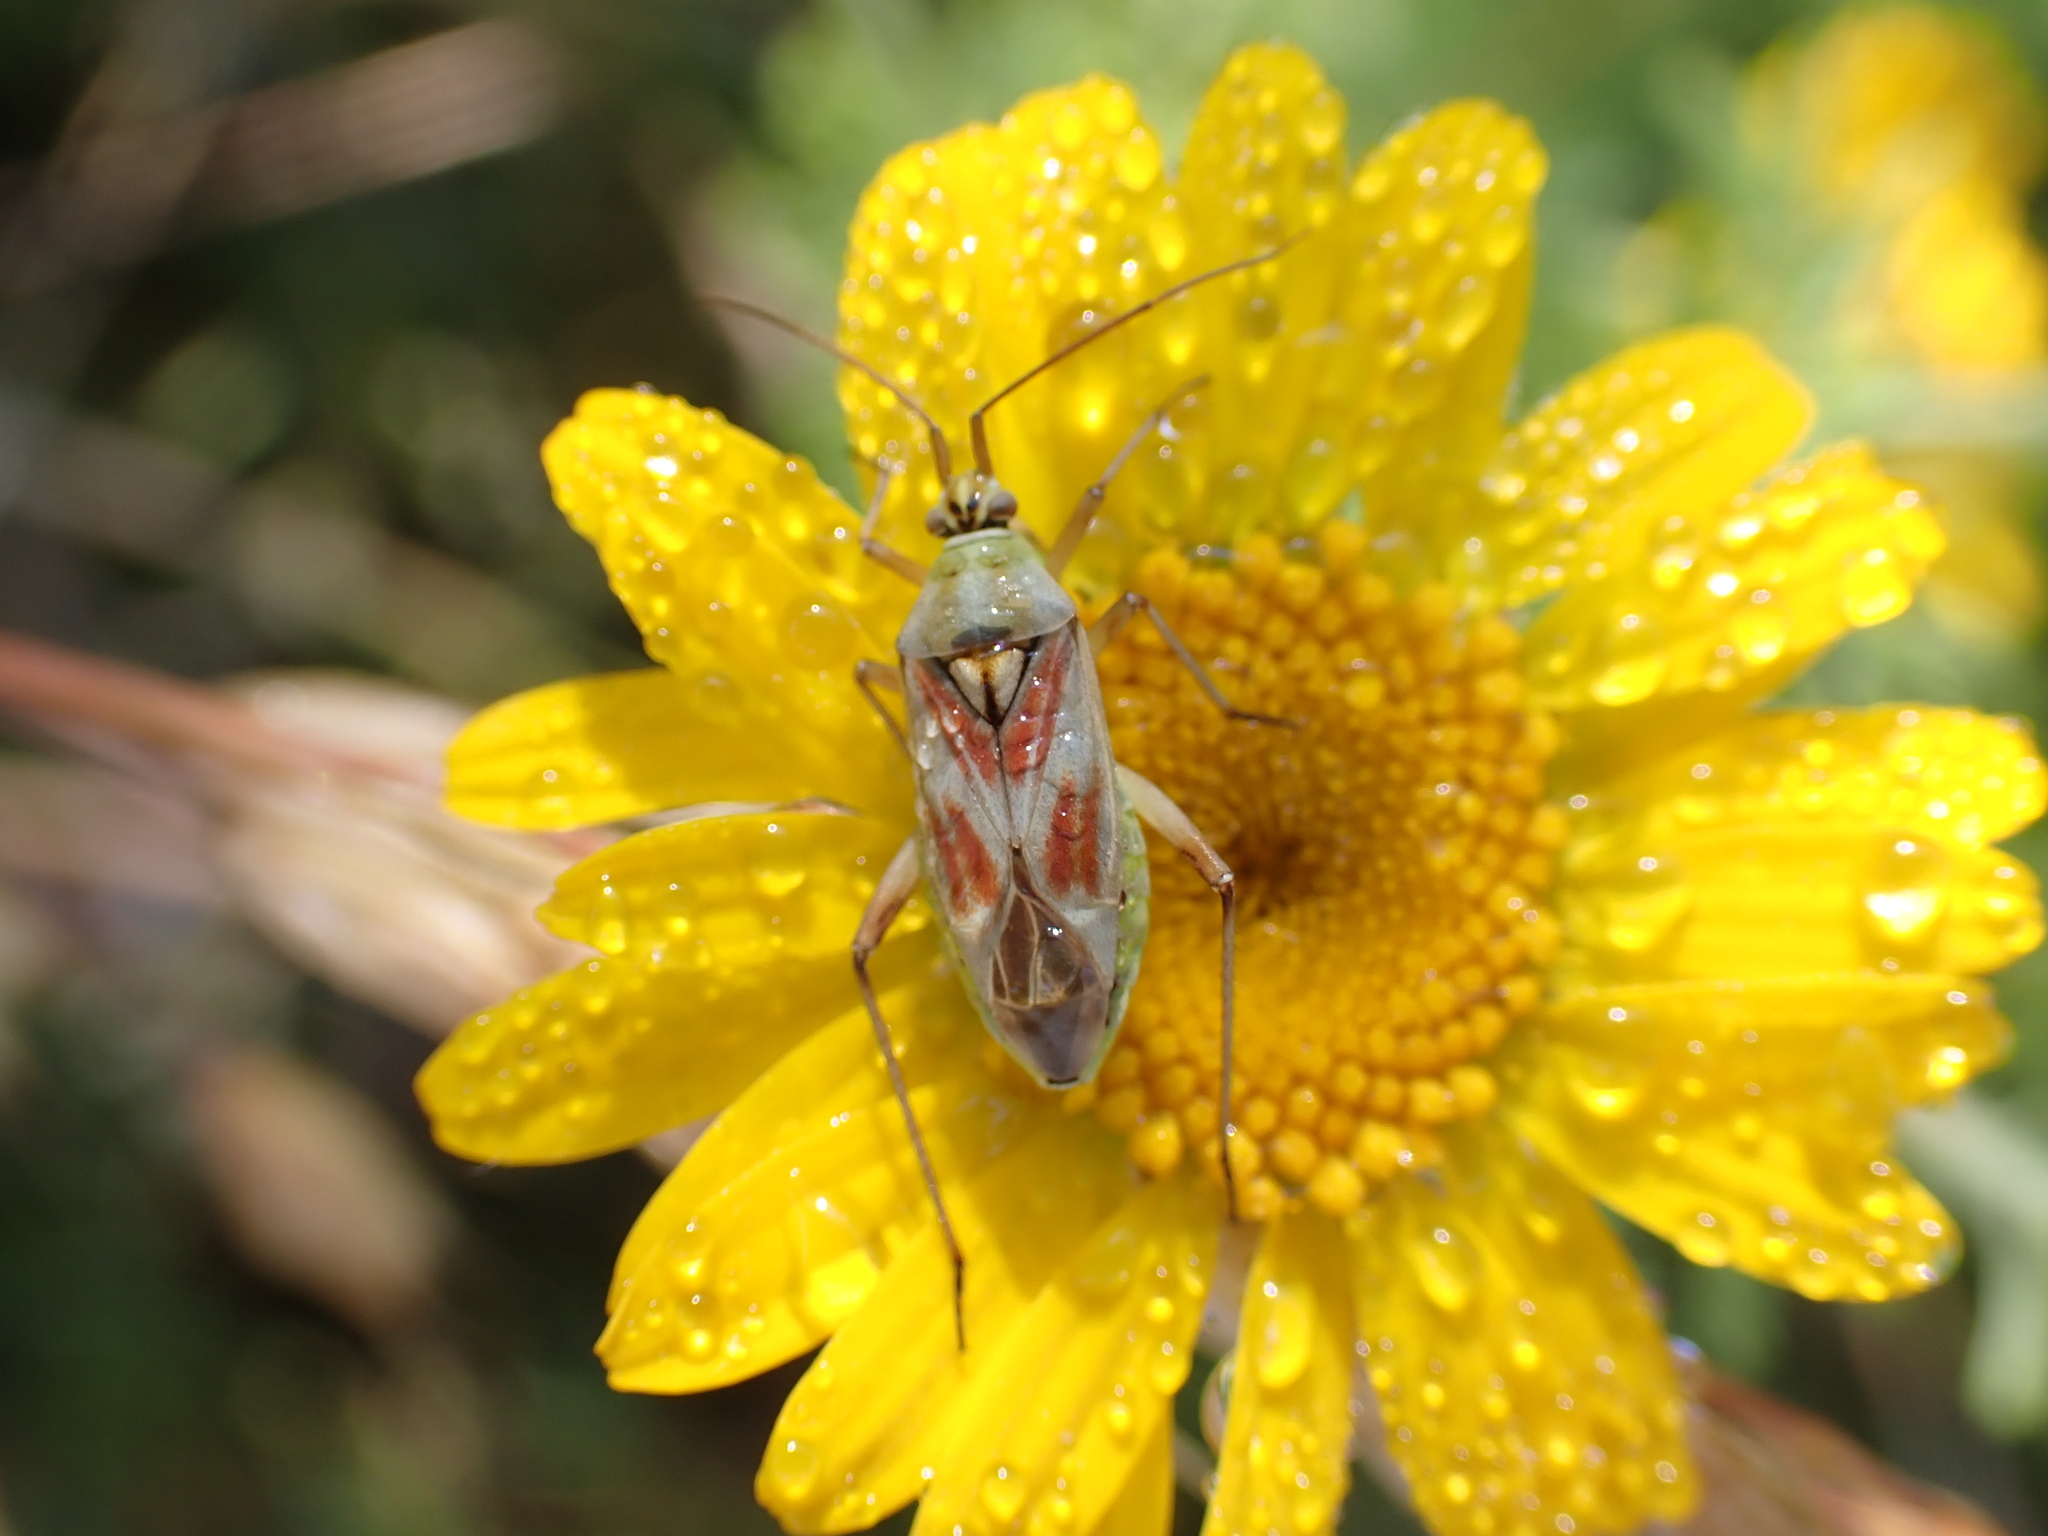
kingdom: Animalia
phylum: Arthropoda
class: Insecta
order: Hemiptera
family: Miridae
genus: Calocoris
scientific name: Calocoris roseomaculatus
